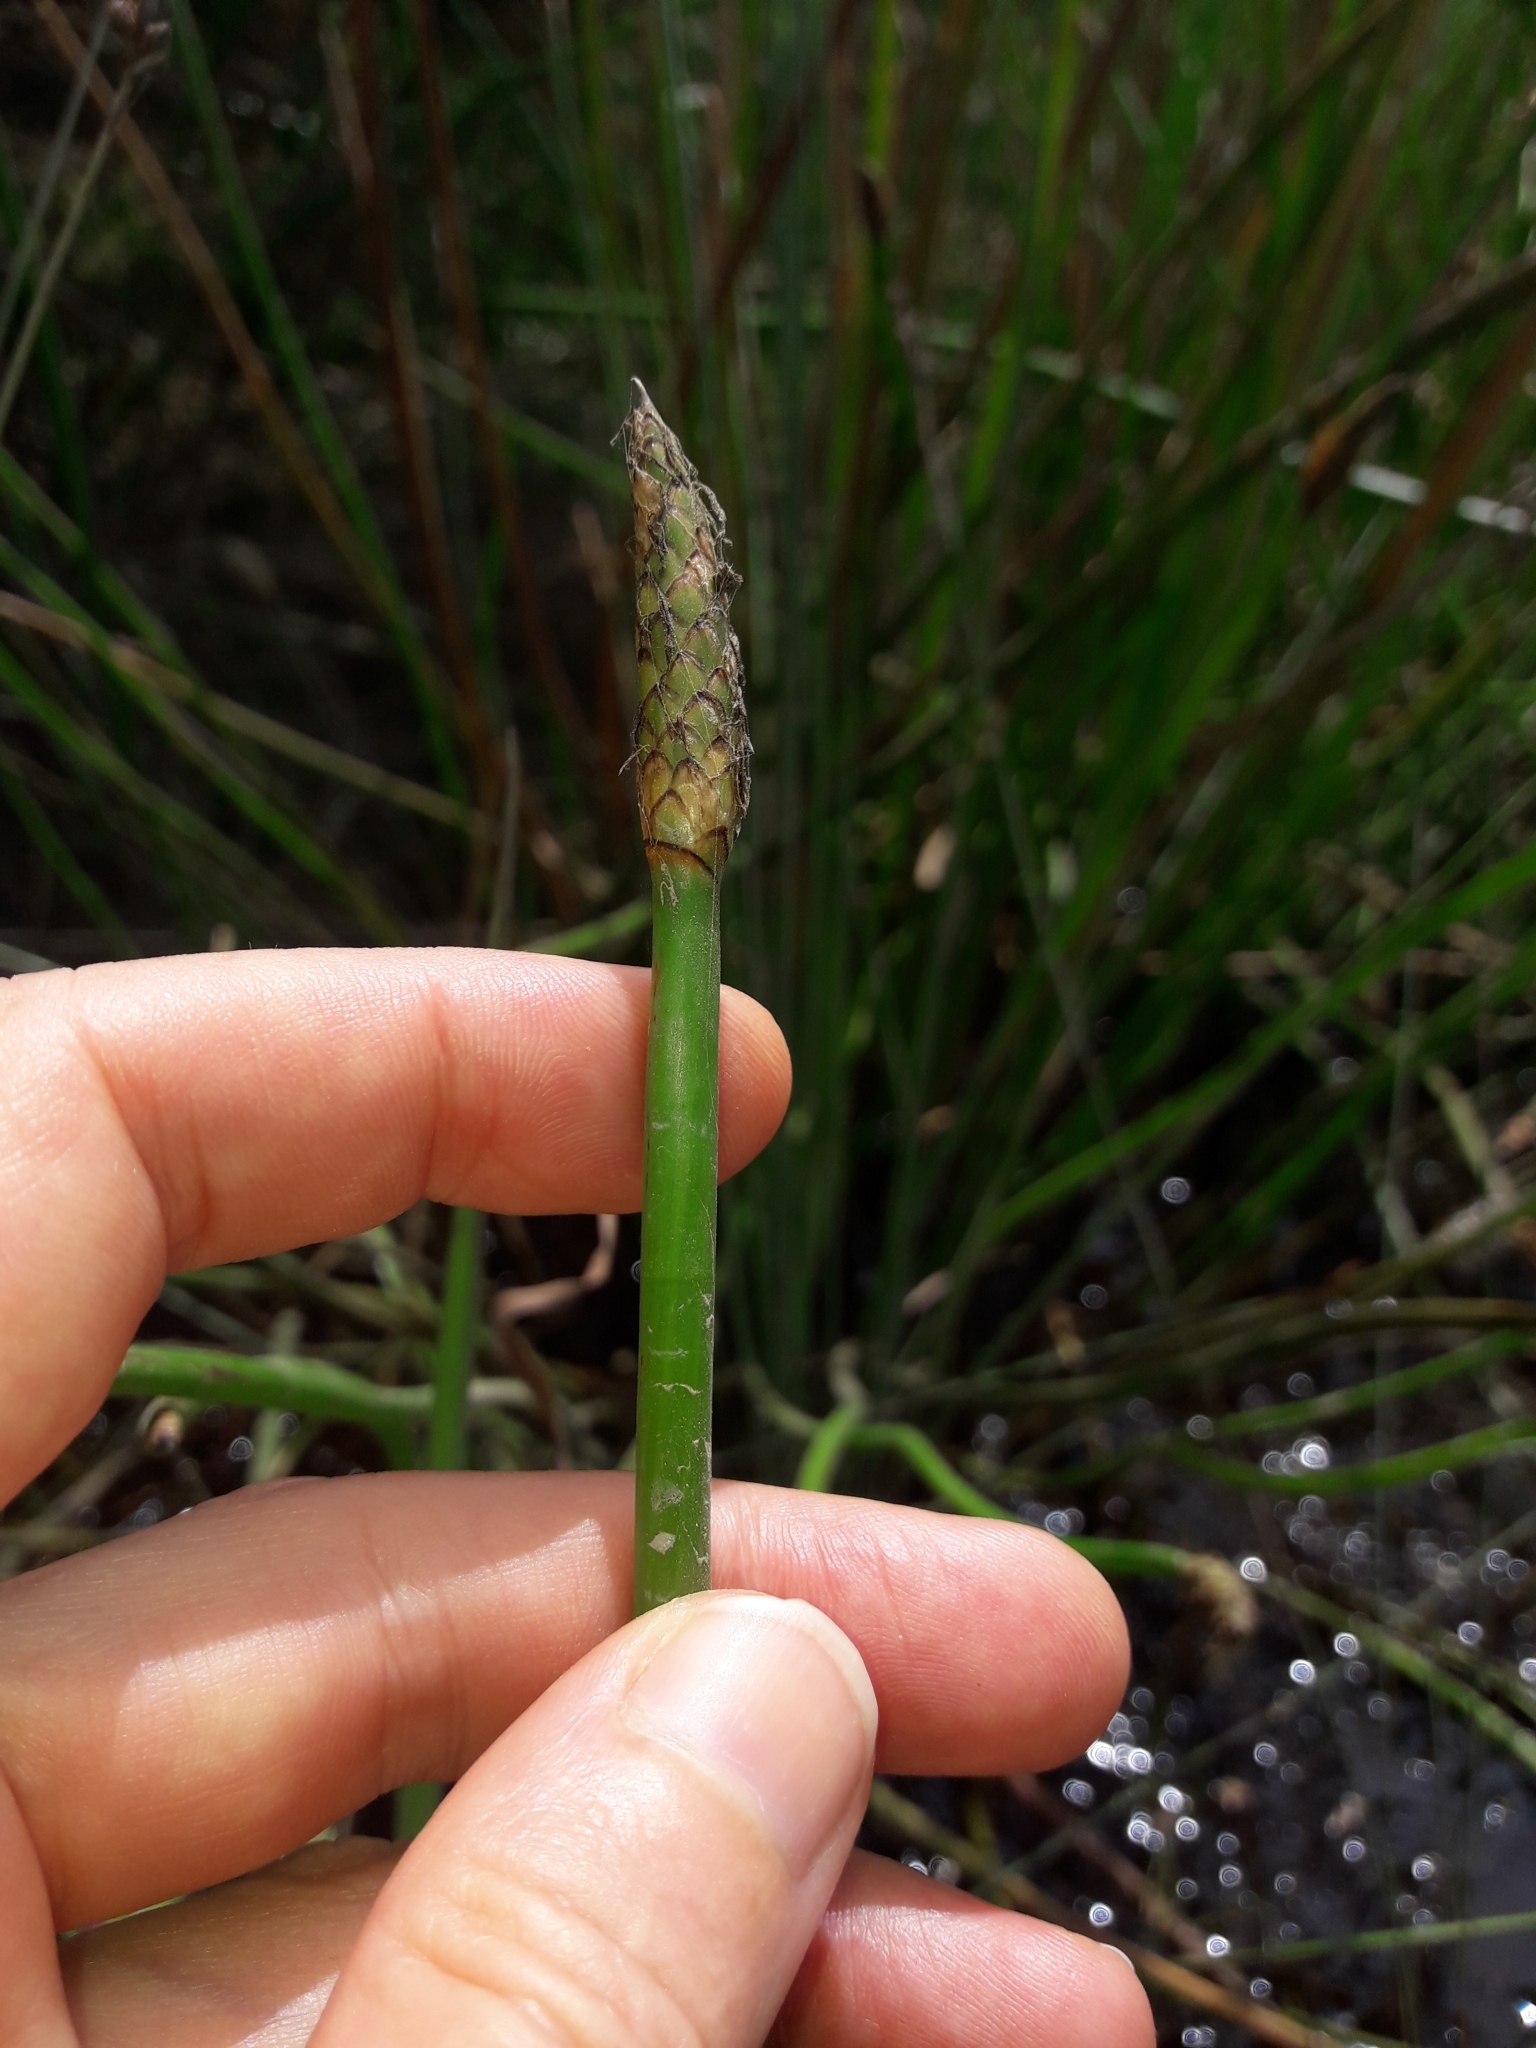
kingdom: Plantae
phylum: Tracheophyta
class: Liliopsida
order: Poales
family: Cyperaceae
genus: Eleocharis
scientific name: Eleocharis sphacelata
